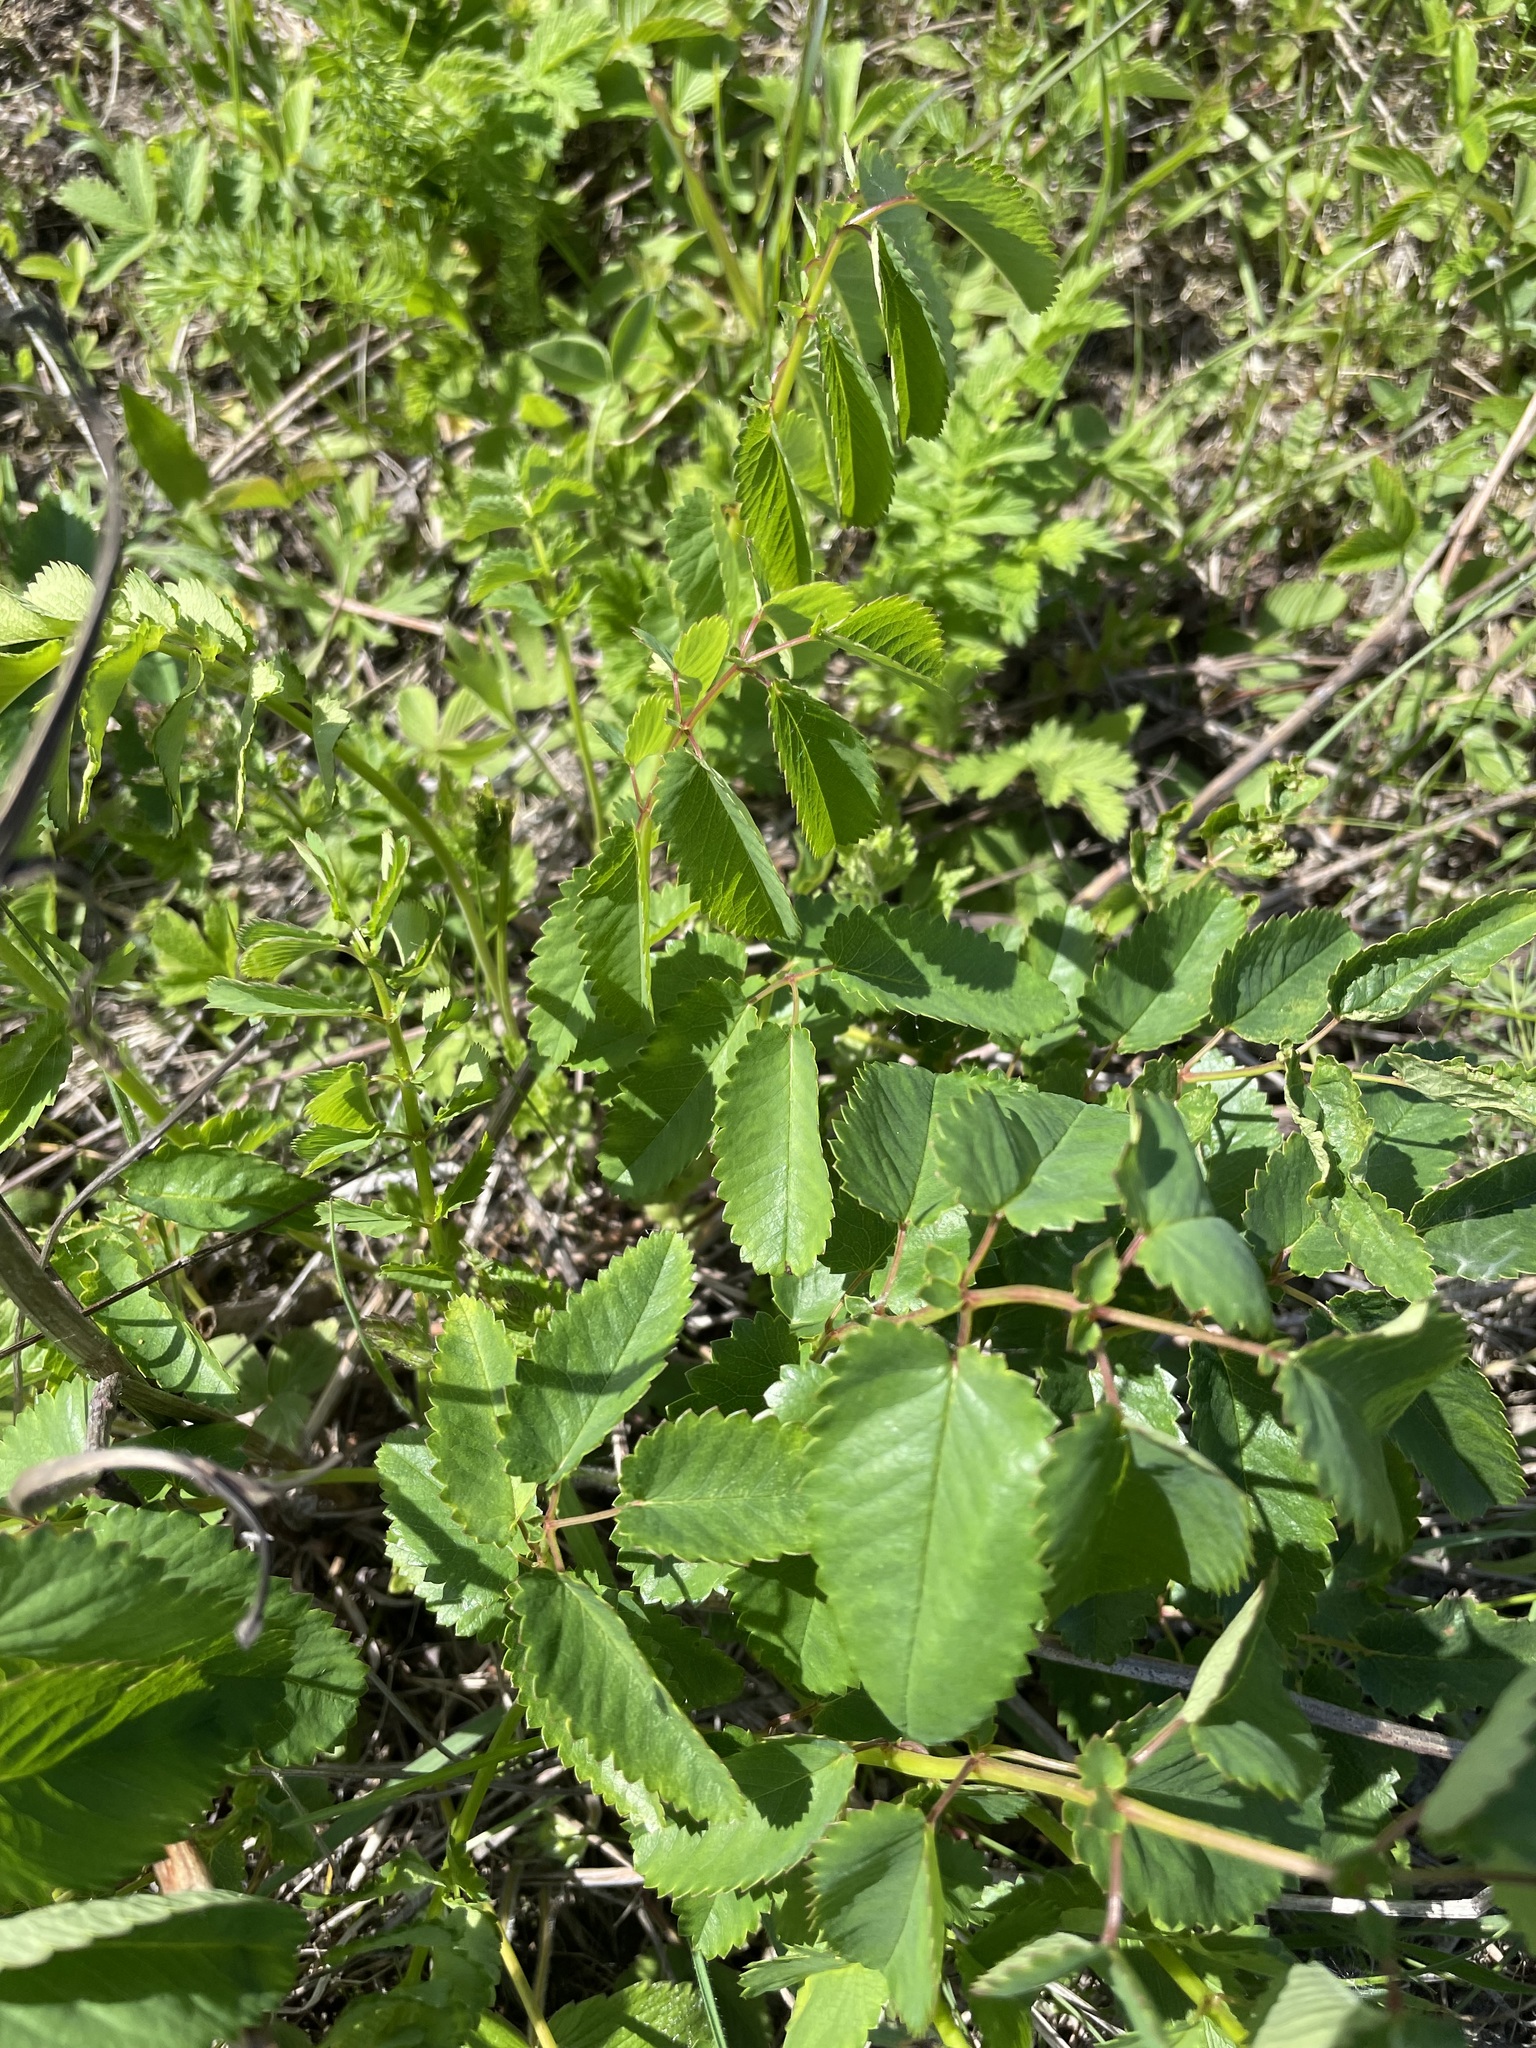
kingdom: Plantae
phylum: Tracheophyta
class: Magnoliopsida
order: Rosales
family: Rosaceae
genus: Sanguisorba
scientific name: Sanguisorba officinalis
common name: Great burnet
